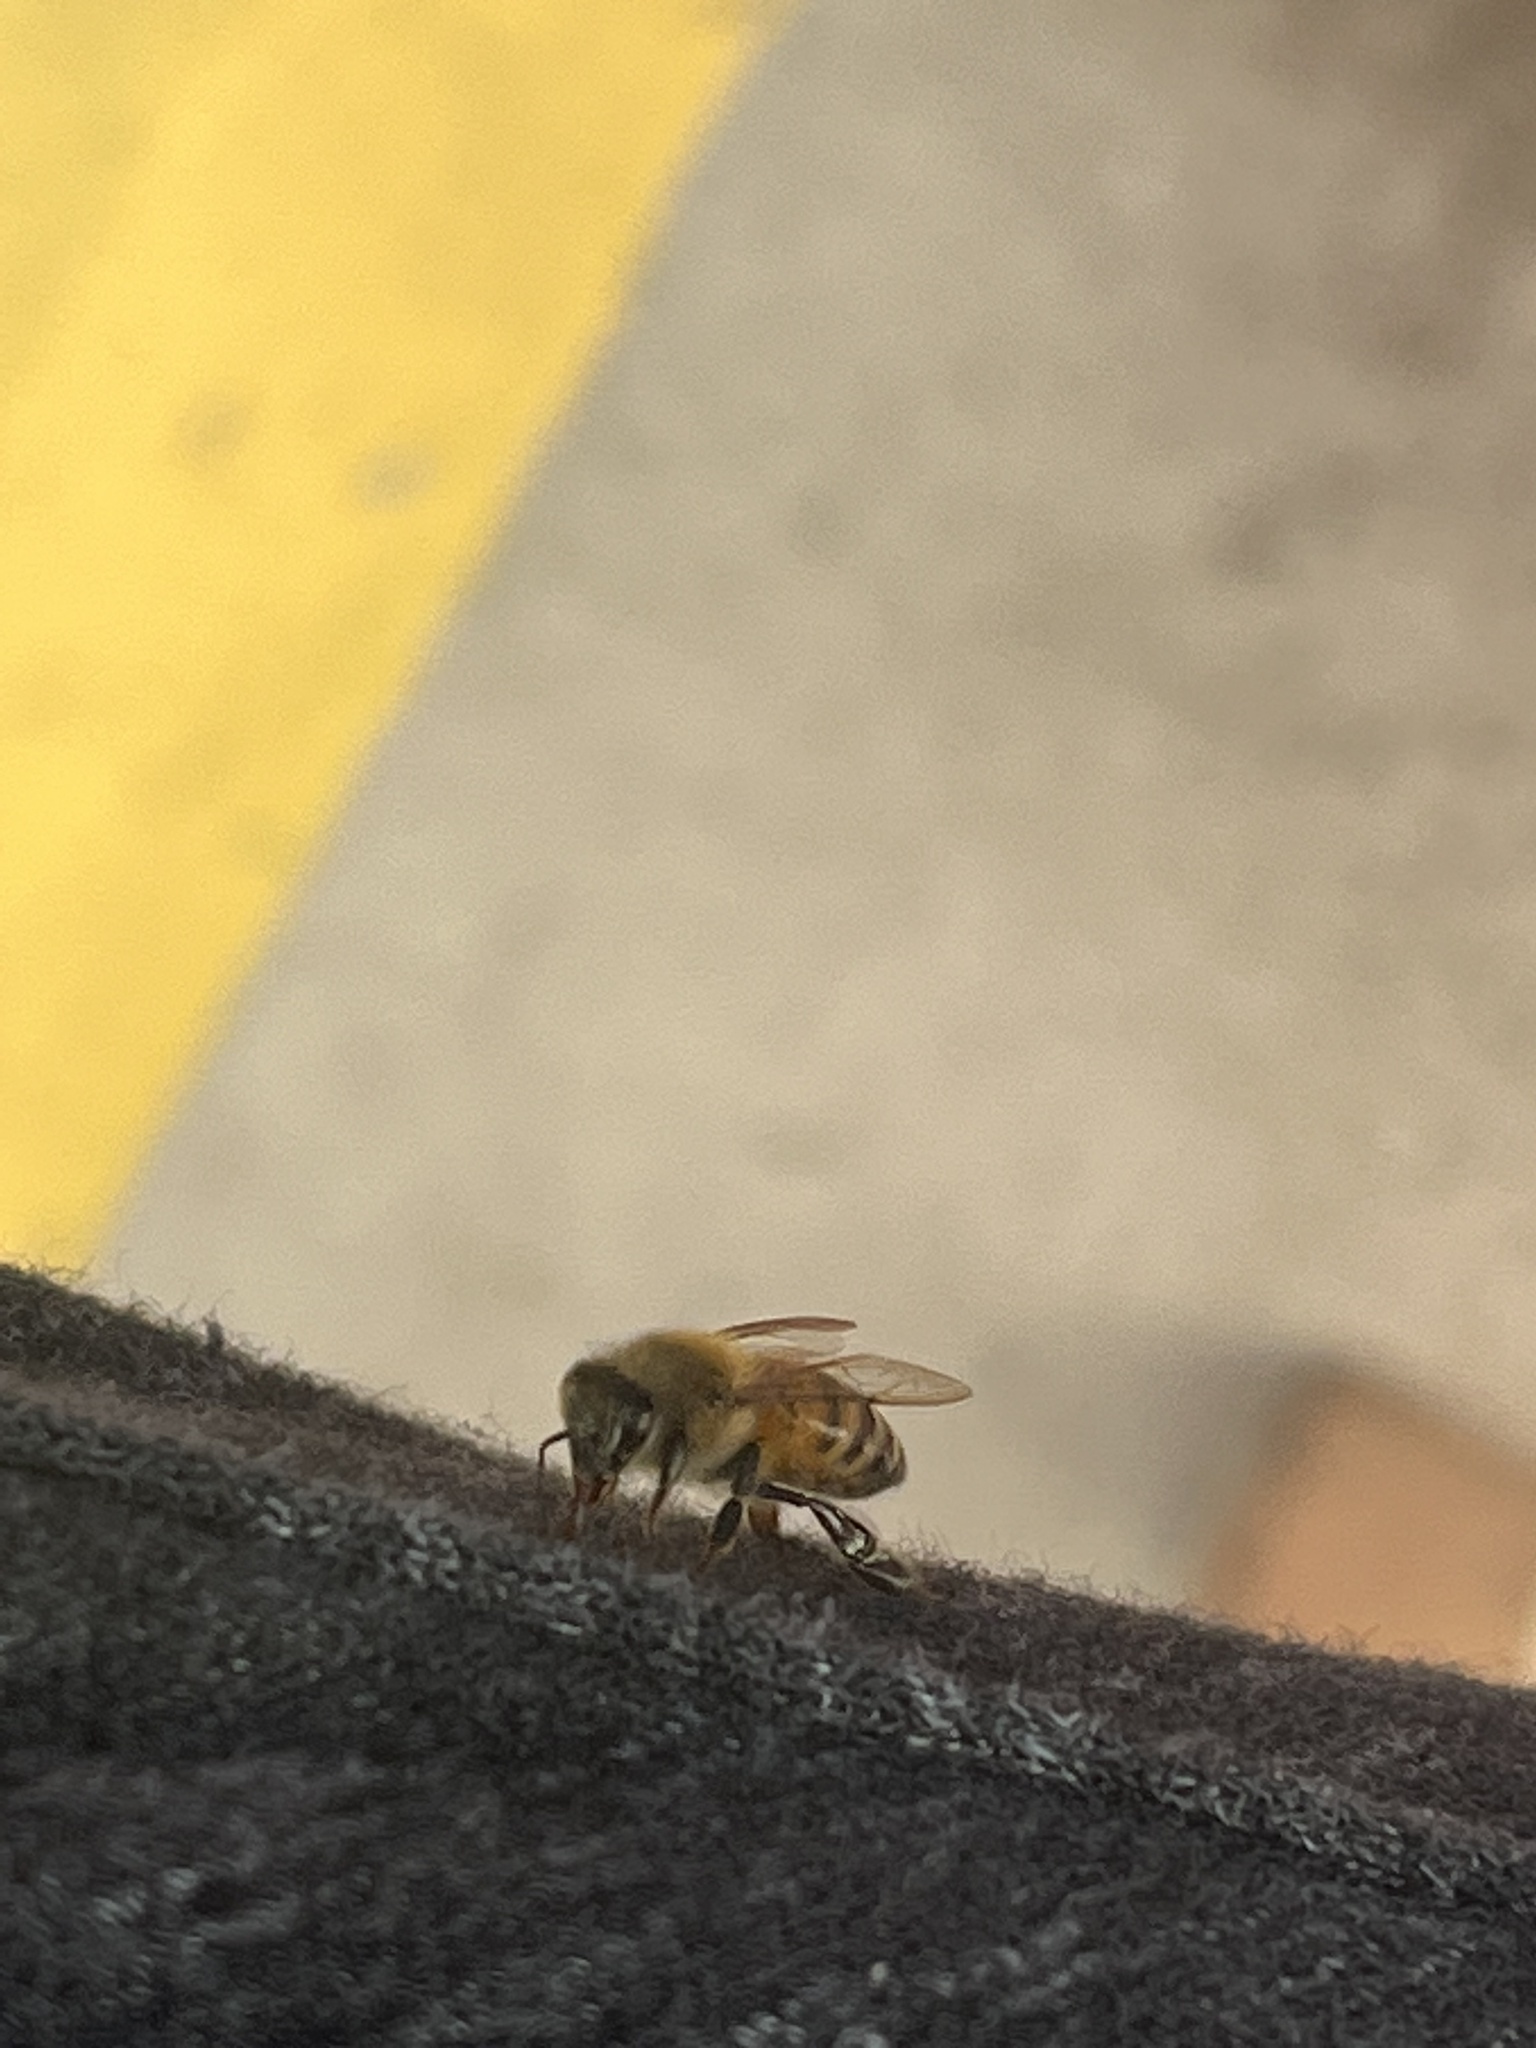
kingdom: Animalia
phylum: Arthropoda
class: Insecta
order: Hymenoptera
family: Apidae
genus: Apis
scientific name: Apis mellifera
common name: Honey bee
